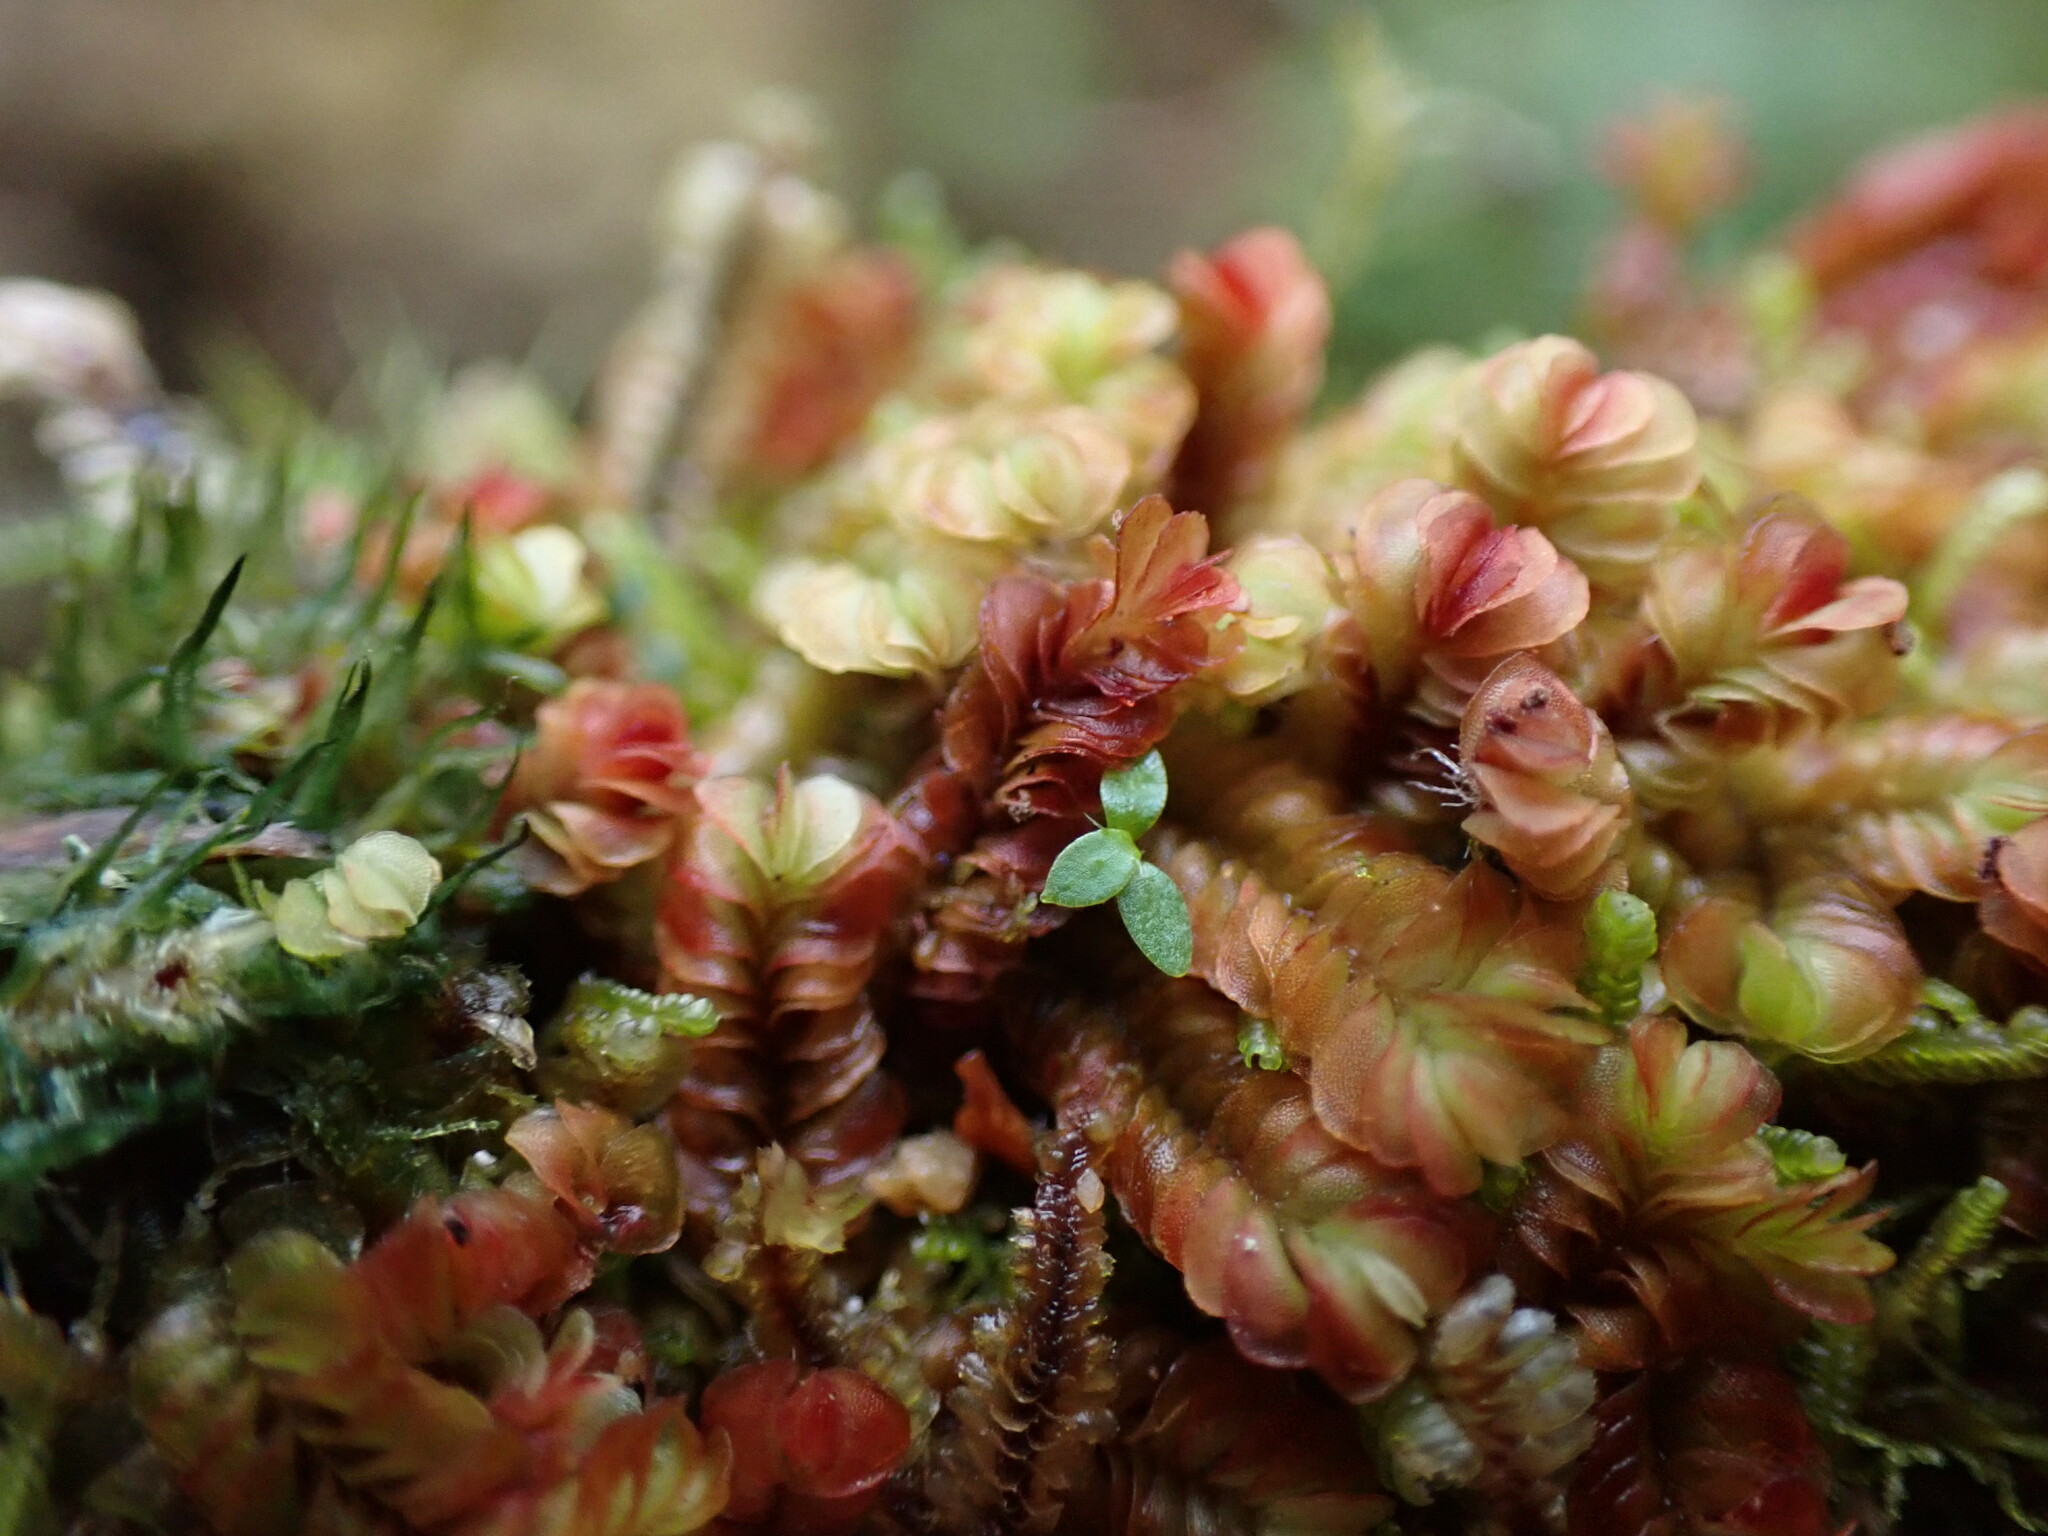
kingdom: Plantae
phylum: Marchantiophyta
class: Jungermanniopsida
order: Jungermanniales
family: Myliaceae
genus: Mylia
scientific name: Mylia taylorii
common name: Taylor s flapwort
